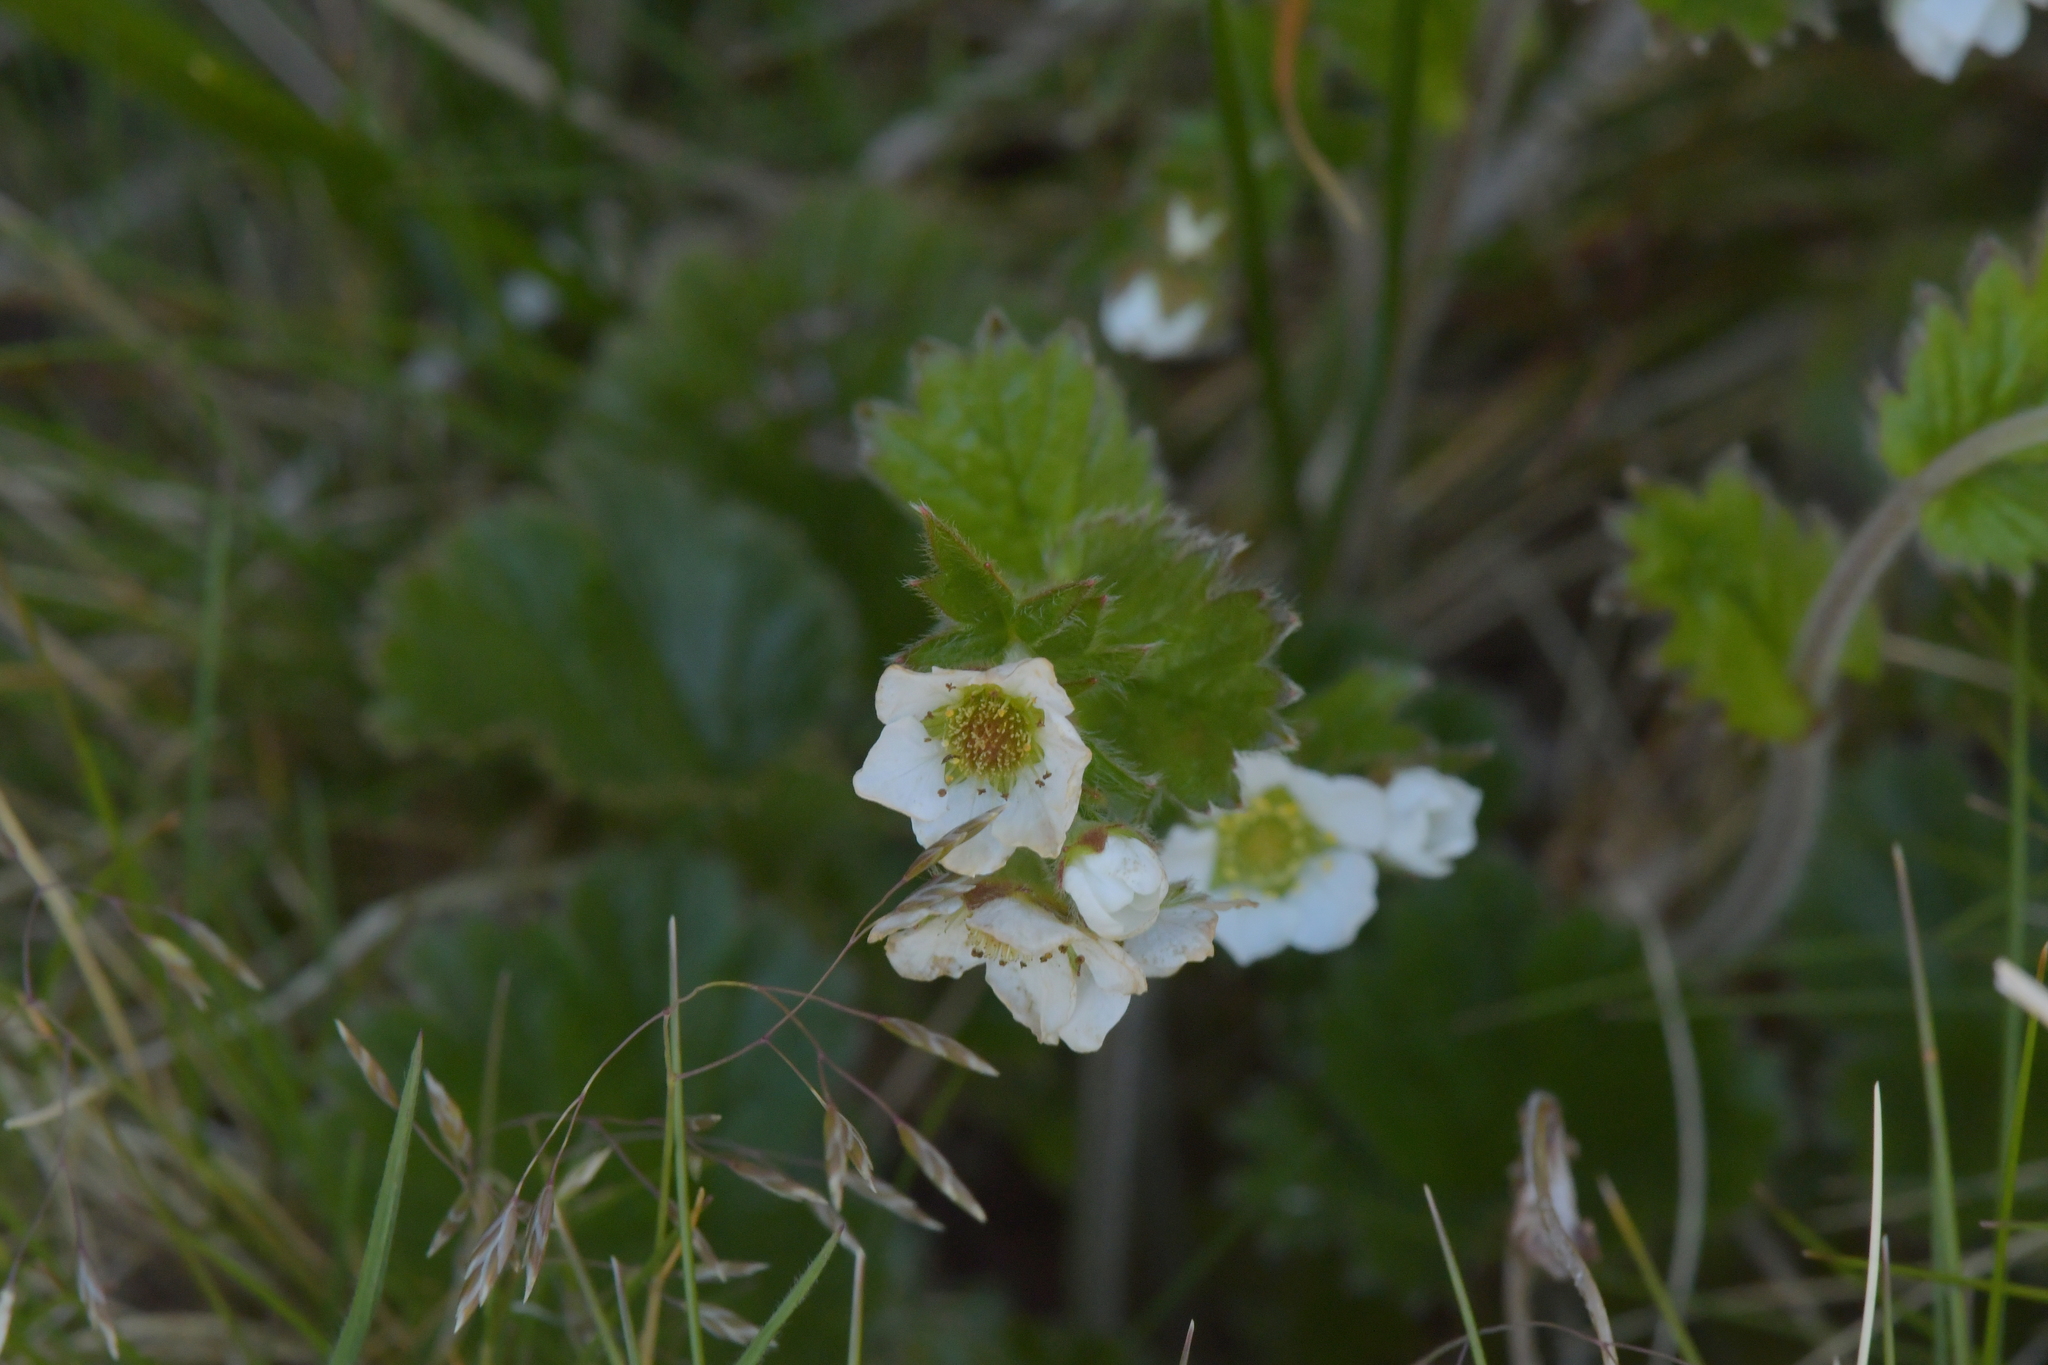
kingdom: Plantae
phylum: Tracheophyta
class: Magnoliopsida
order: Rosales
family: Rosaceae
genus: Geum
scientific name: Geum cockaynei
